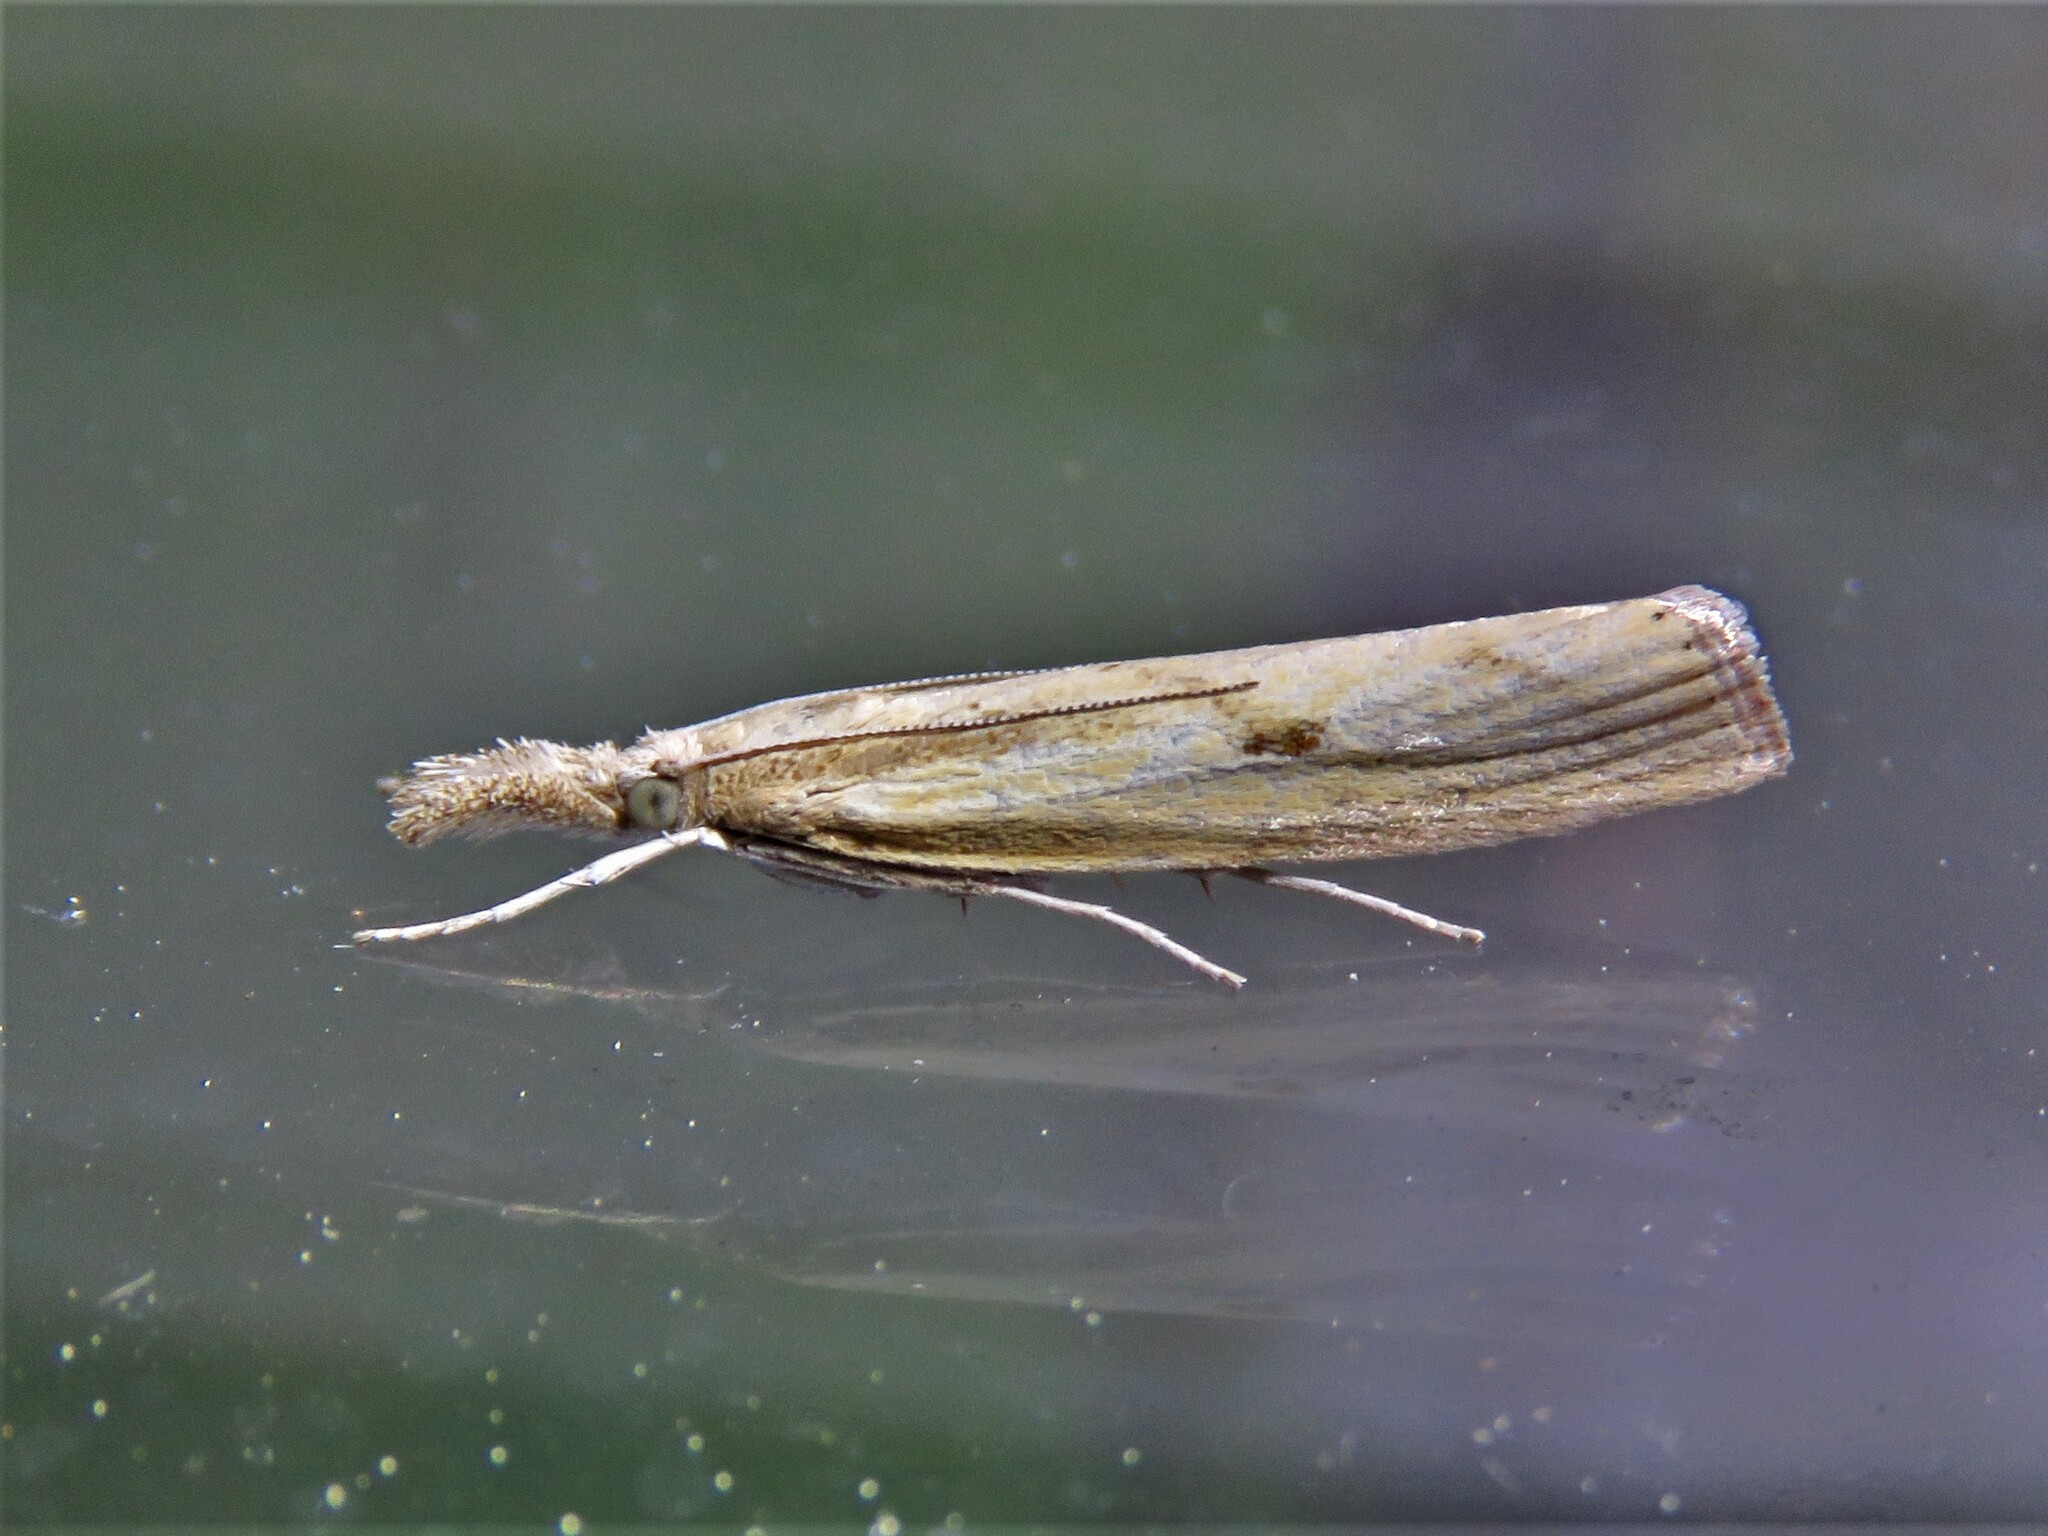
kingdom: Animalia
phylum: Arthropoda
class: Insecta
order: Lepidoptera
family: Crambidae
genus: Agriphila
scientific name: Agriphila inquinatella
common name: Barred grass-veneer
